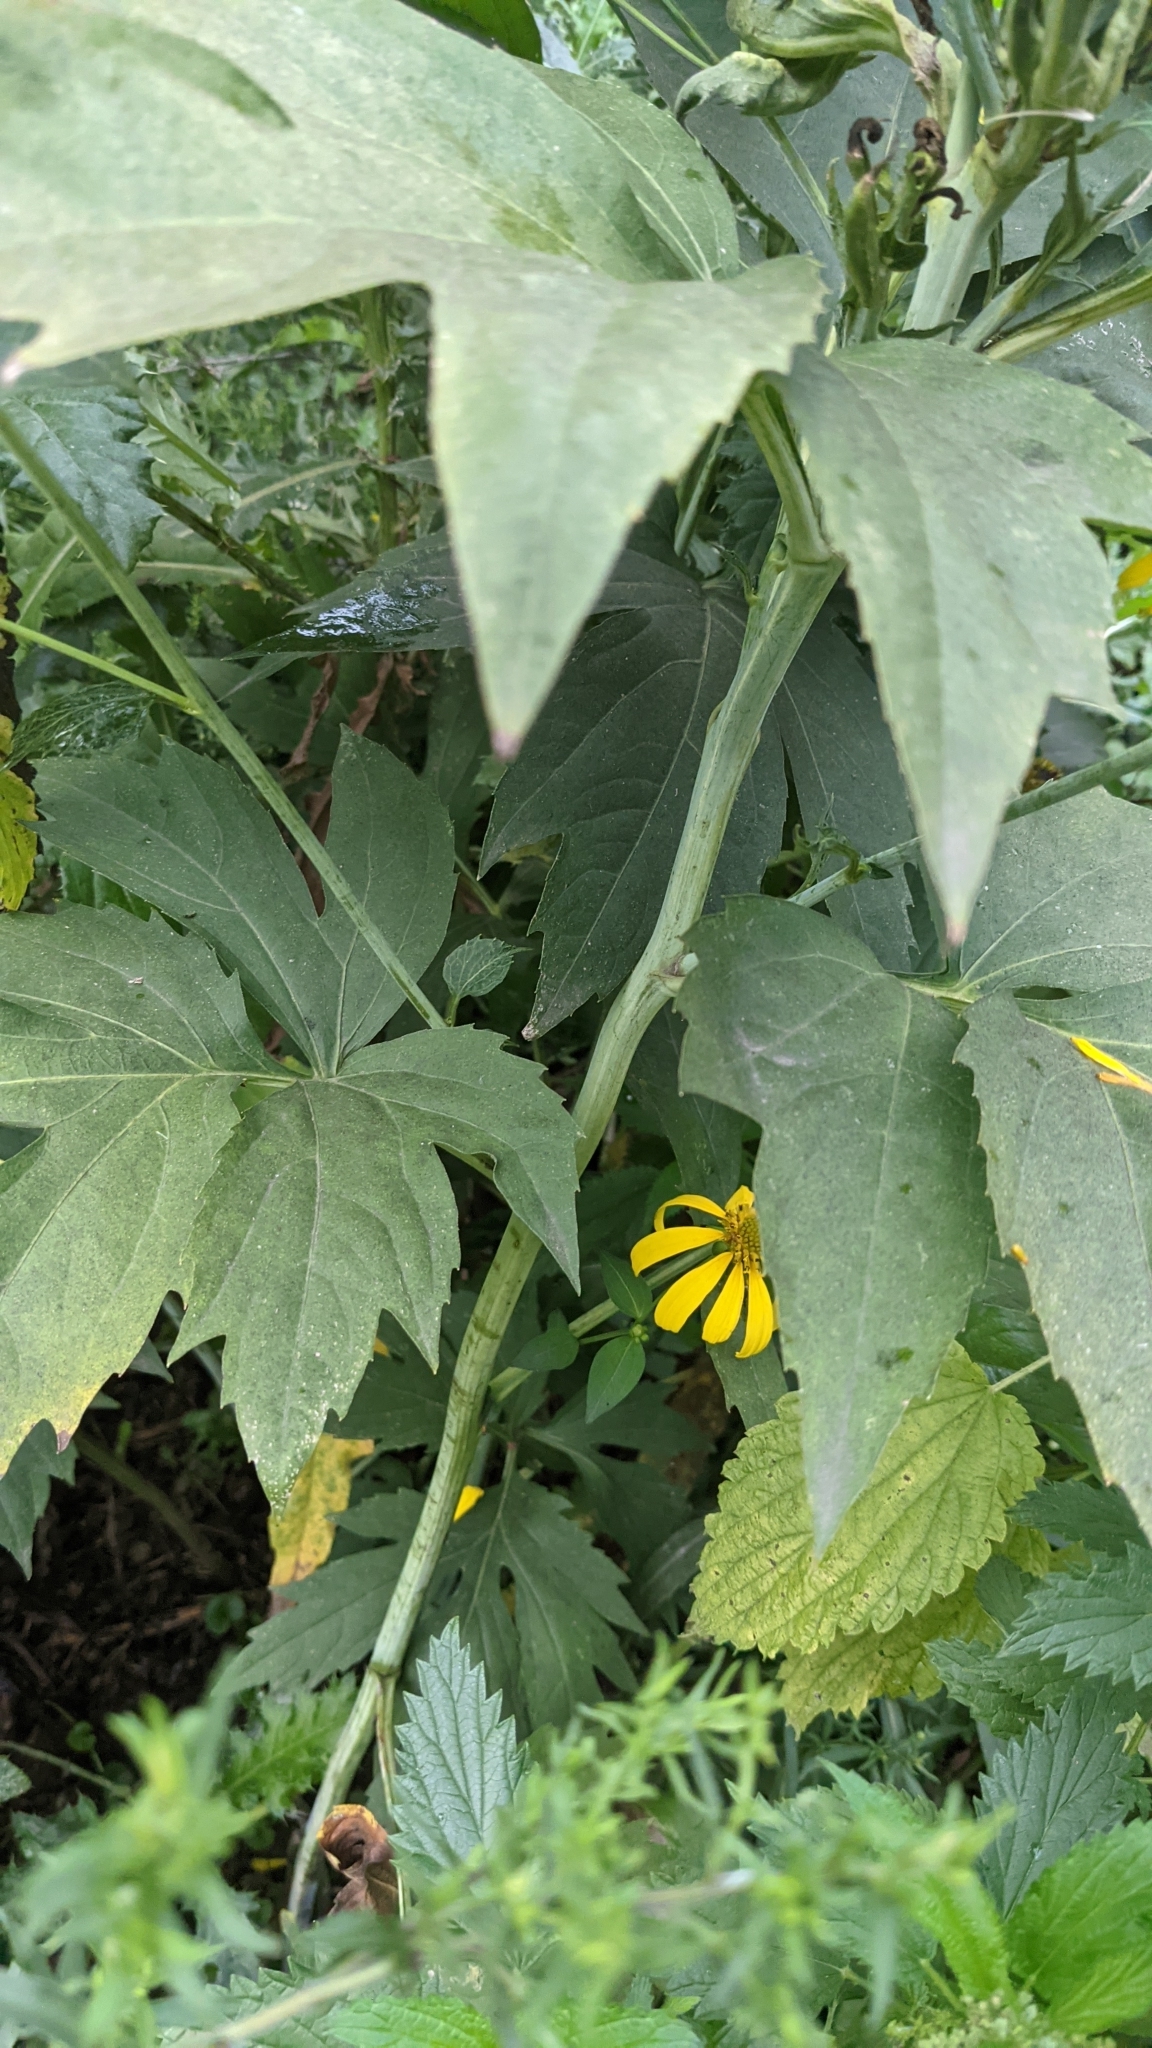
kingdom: Plantae
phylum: Tracheophyta
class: Magnoliopsida
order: Asterales
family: Asteraceae
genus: Rudbeckia
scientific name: Rudbeckia laciniata
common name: Coneflower
